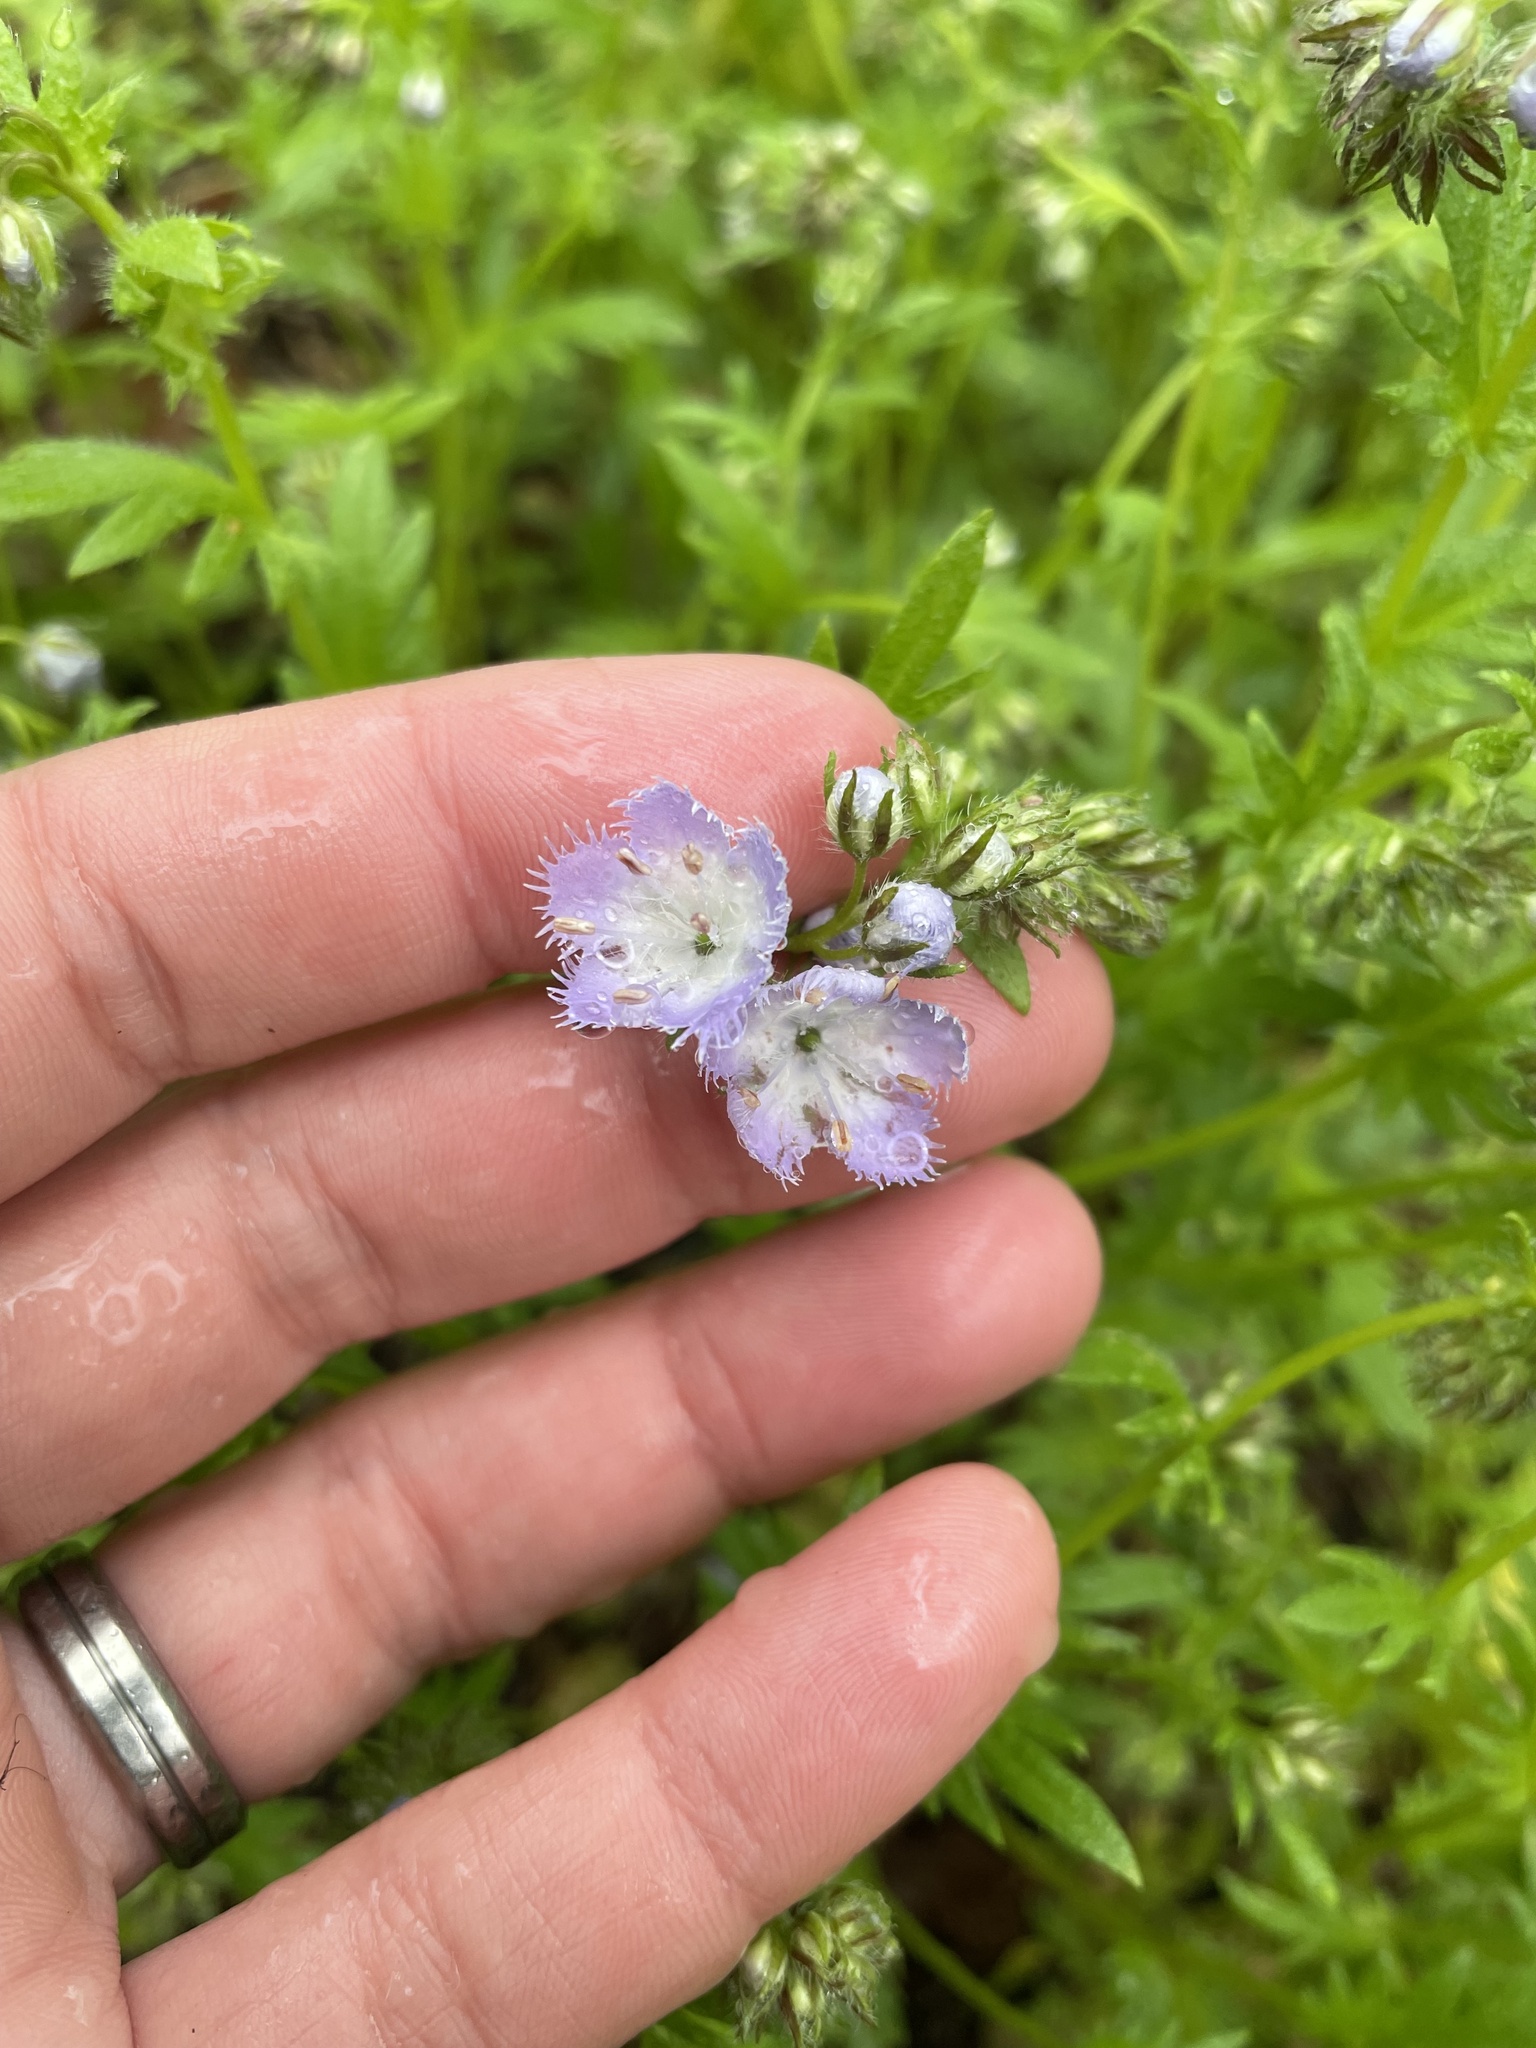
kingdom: Plantae
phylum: Tracheophyta
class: Magnoliopsida
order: Boraginales
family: Hydrophyllaceae
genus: Phacelia
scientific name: Phacelia purshii
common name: Miami-mist
